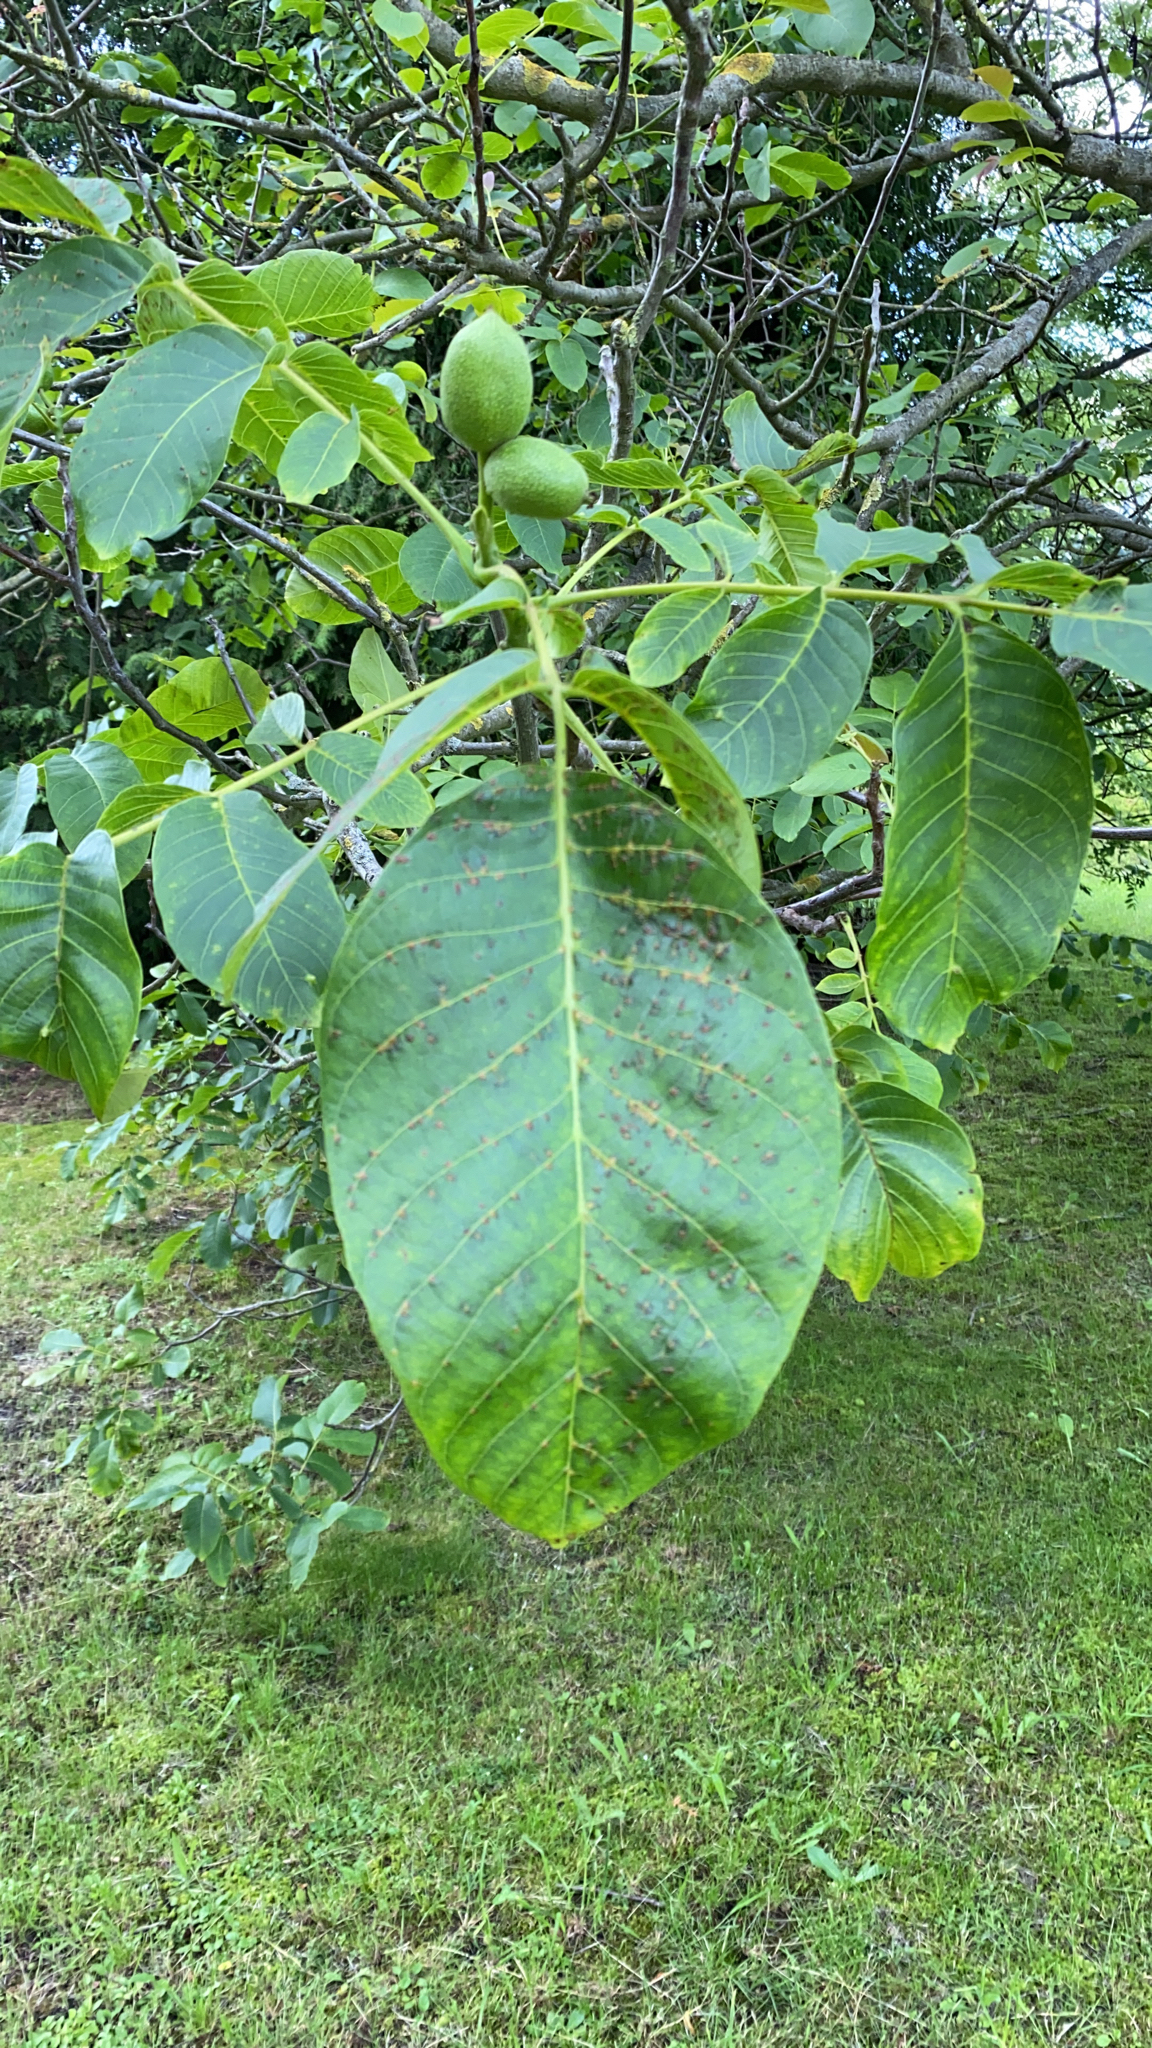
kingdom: Plantae
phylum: Tracheophyta
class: Magnoliopsida
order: Fagales
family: Juglandaceae
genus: Juglans
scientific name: Juglans regia
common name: Walnut
